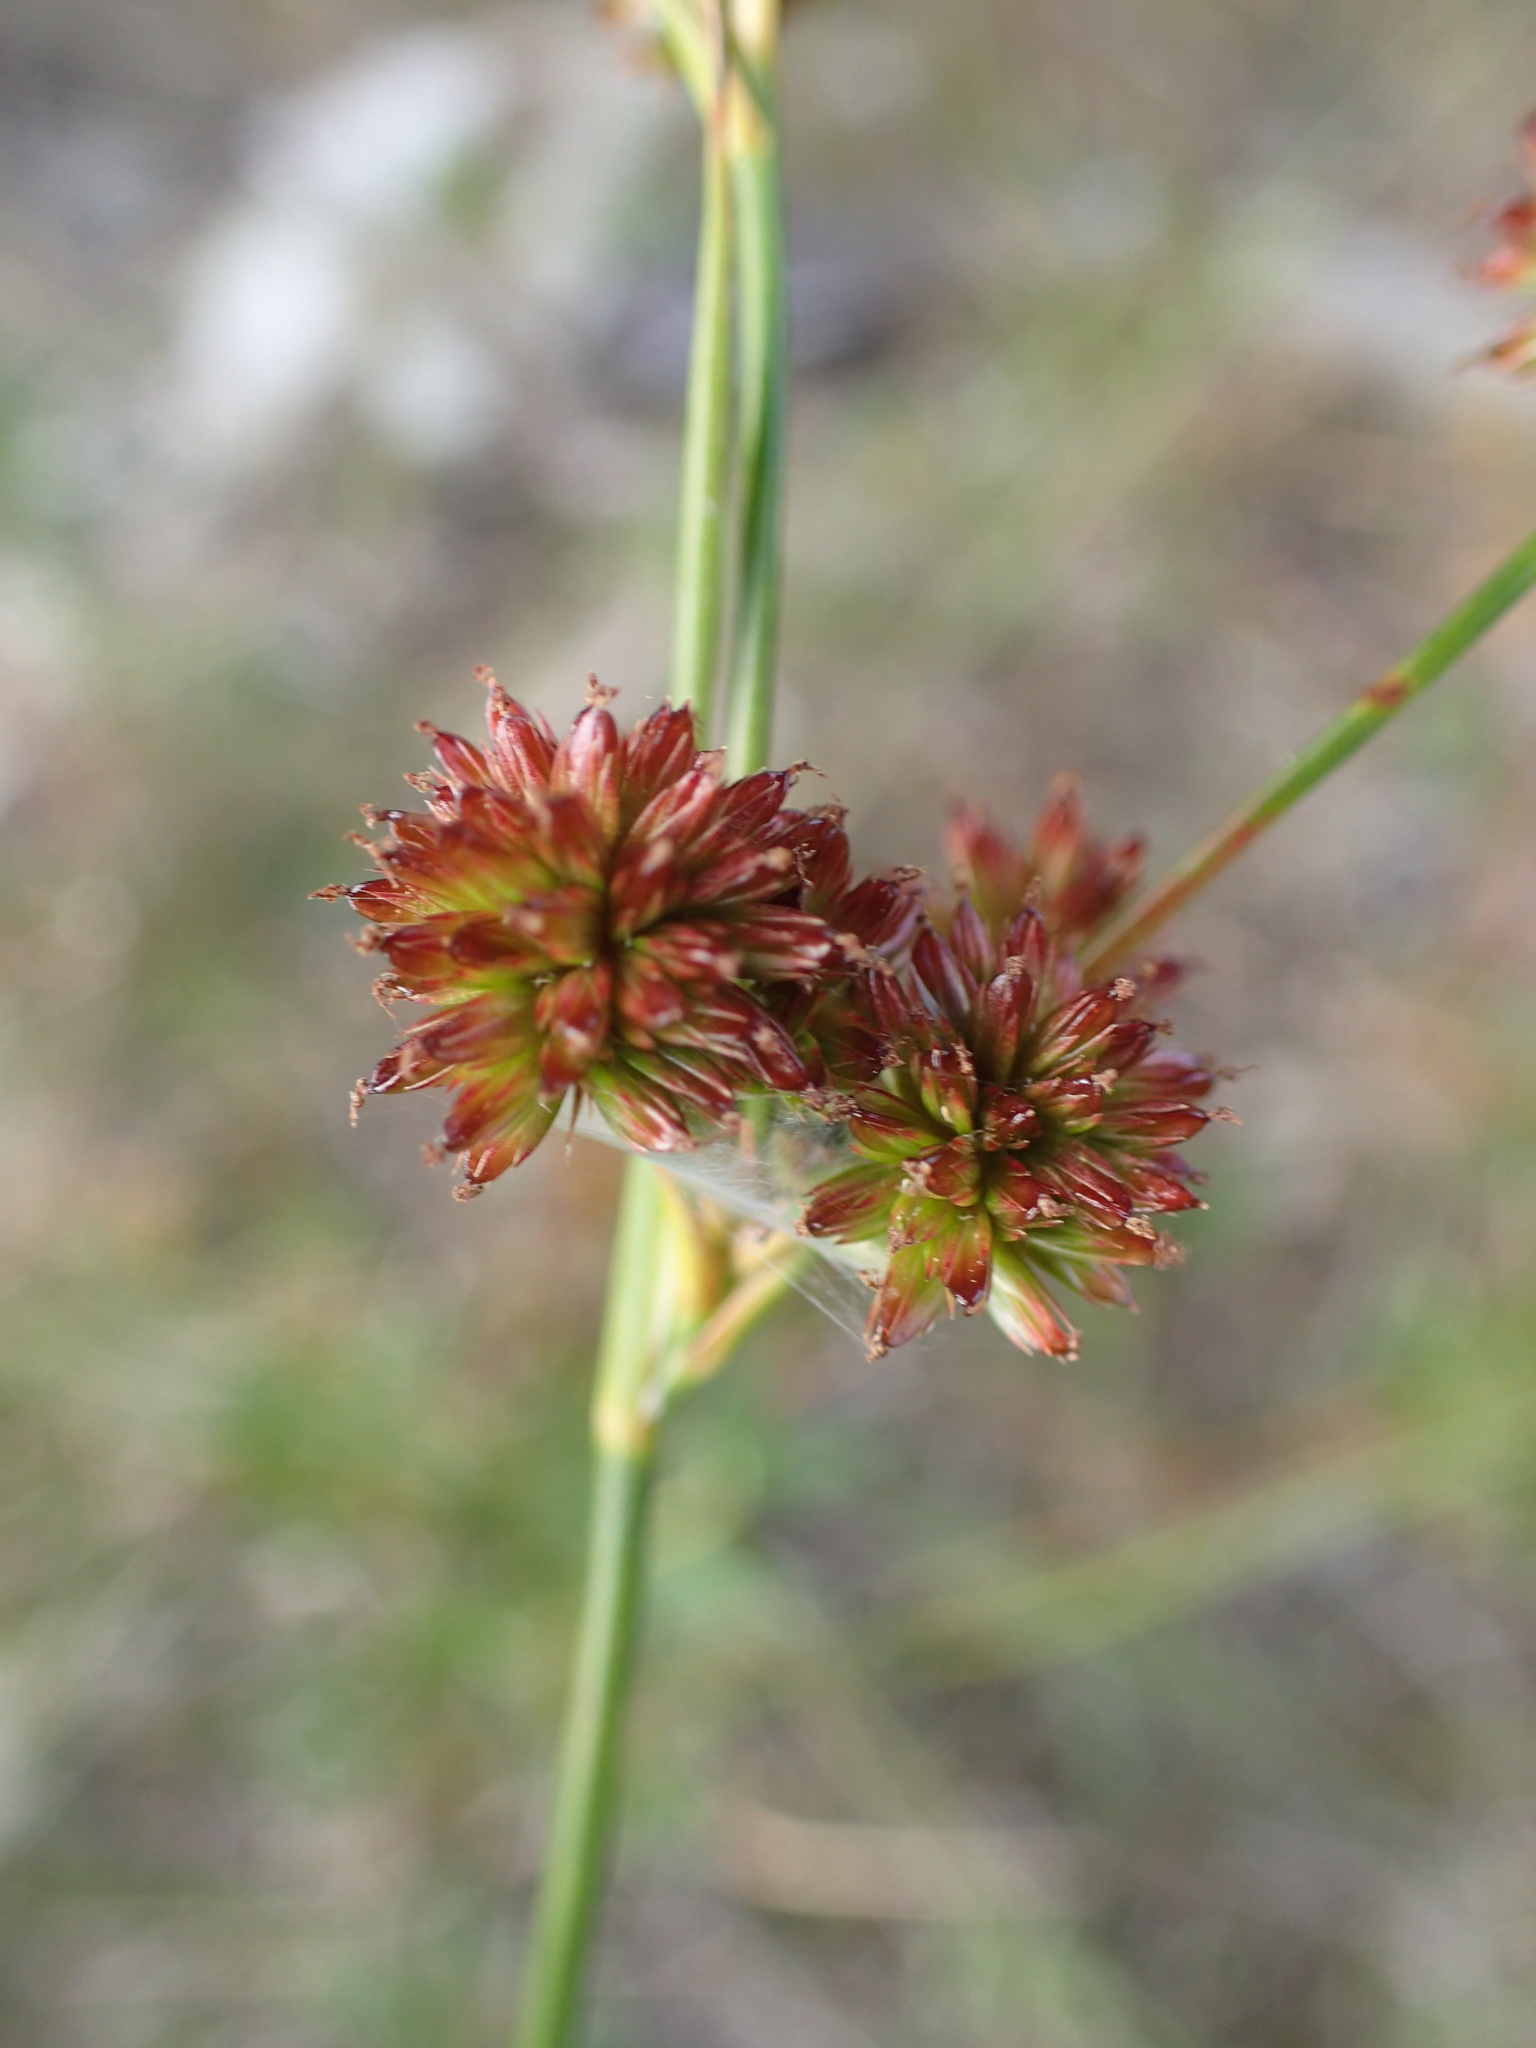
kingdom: Plantae
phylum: Tracheophyta
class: Liliopsida
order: Poales
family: Juncaceae
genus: Juncus
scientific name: Juncus canadensis
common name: Canada rush
